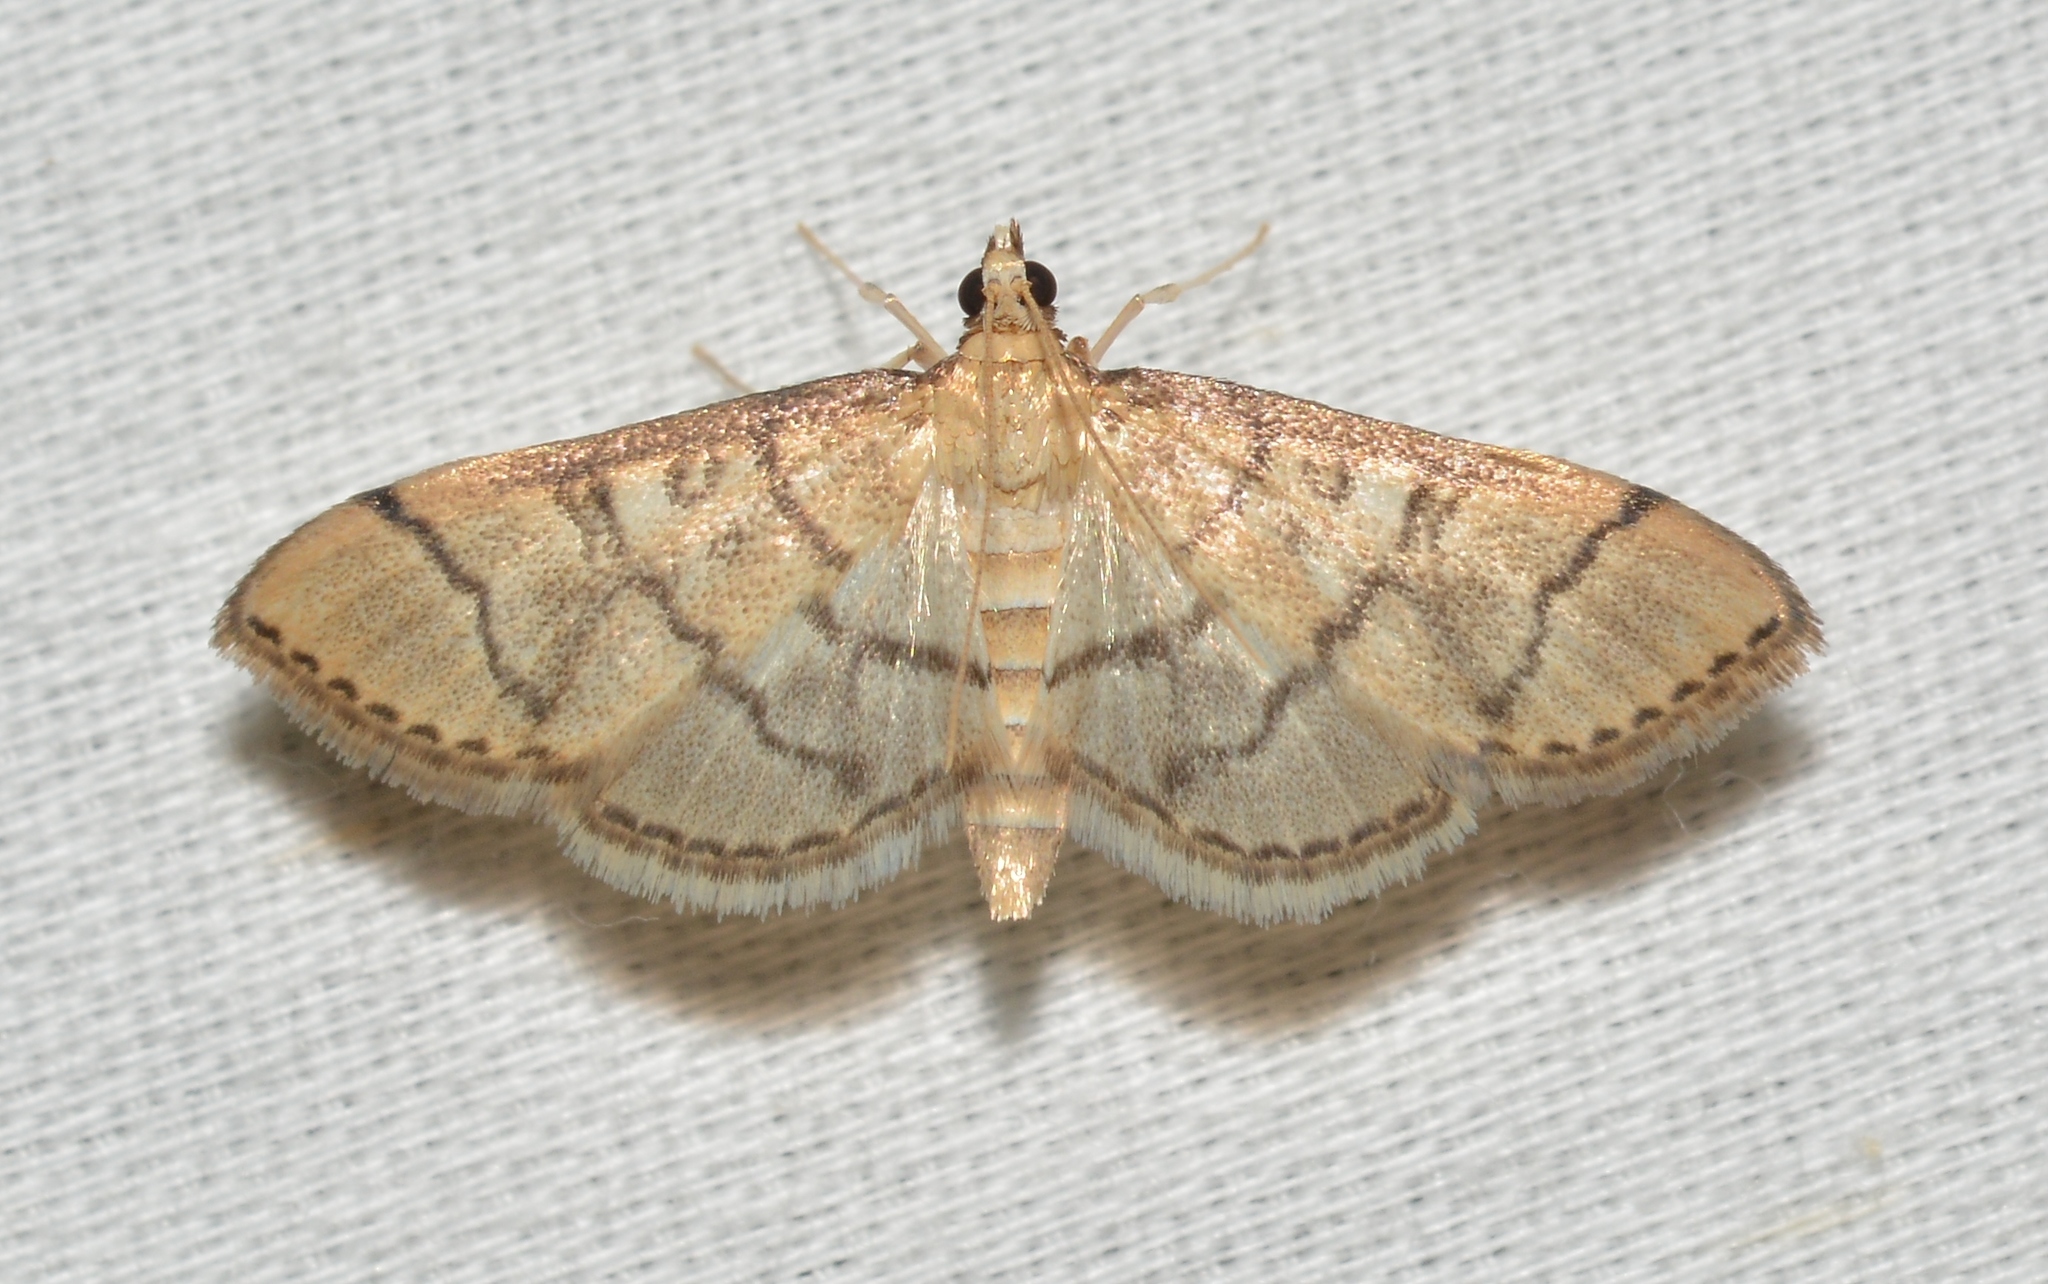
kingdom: Animalia
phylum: Arthropoda
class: Insecta
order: Lepidoptera
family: Crambidae
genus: Lamprosema
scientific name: Lamprosema Blepharomastix ranalis
